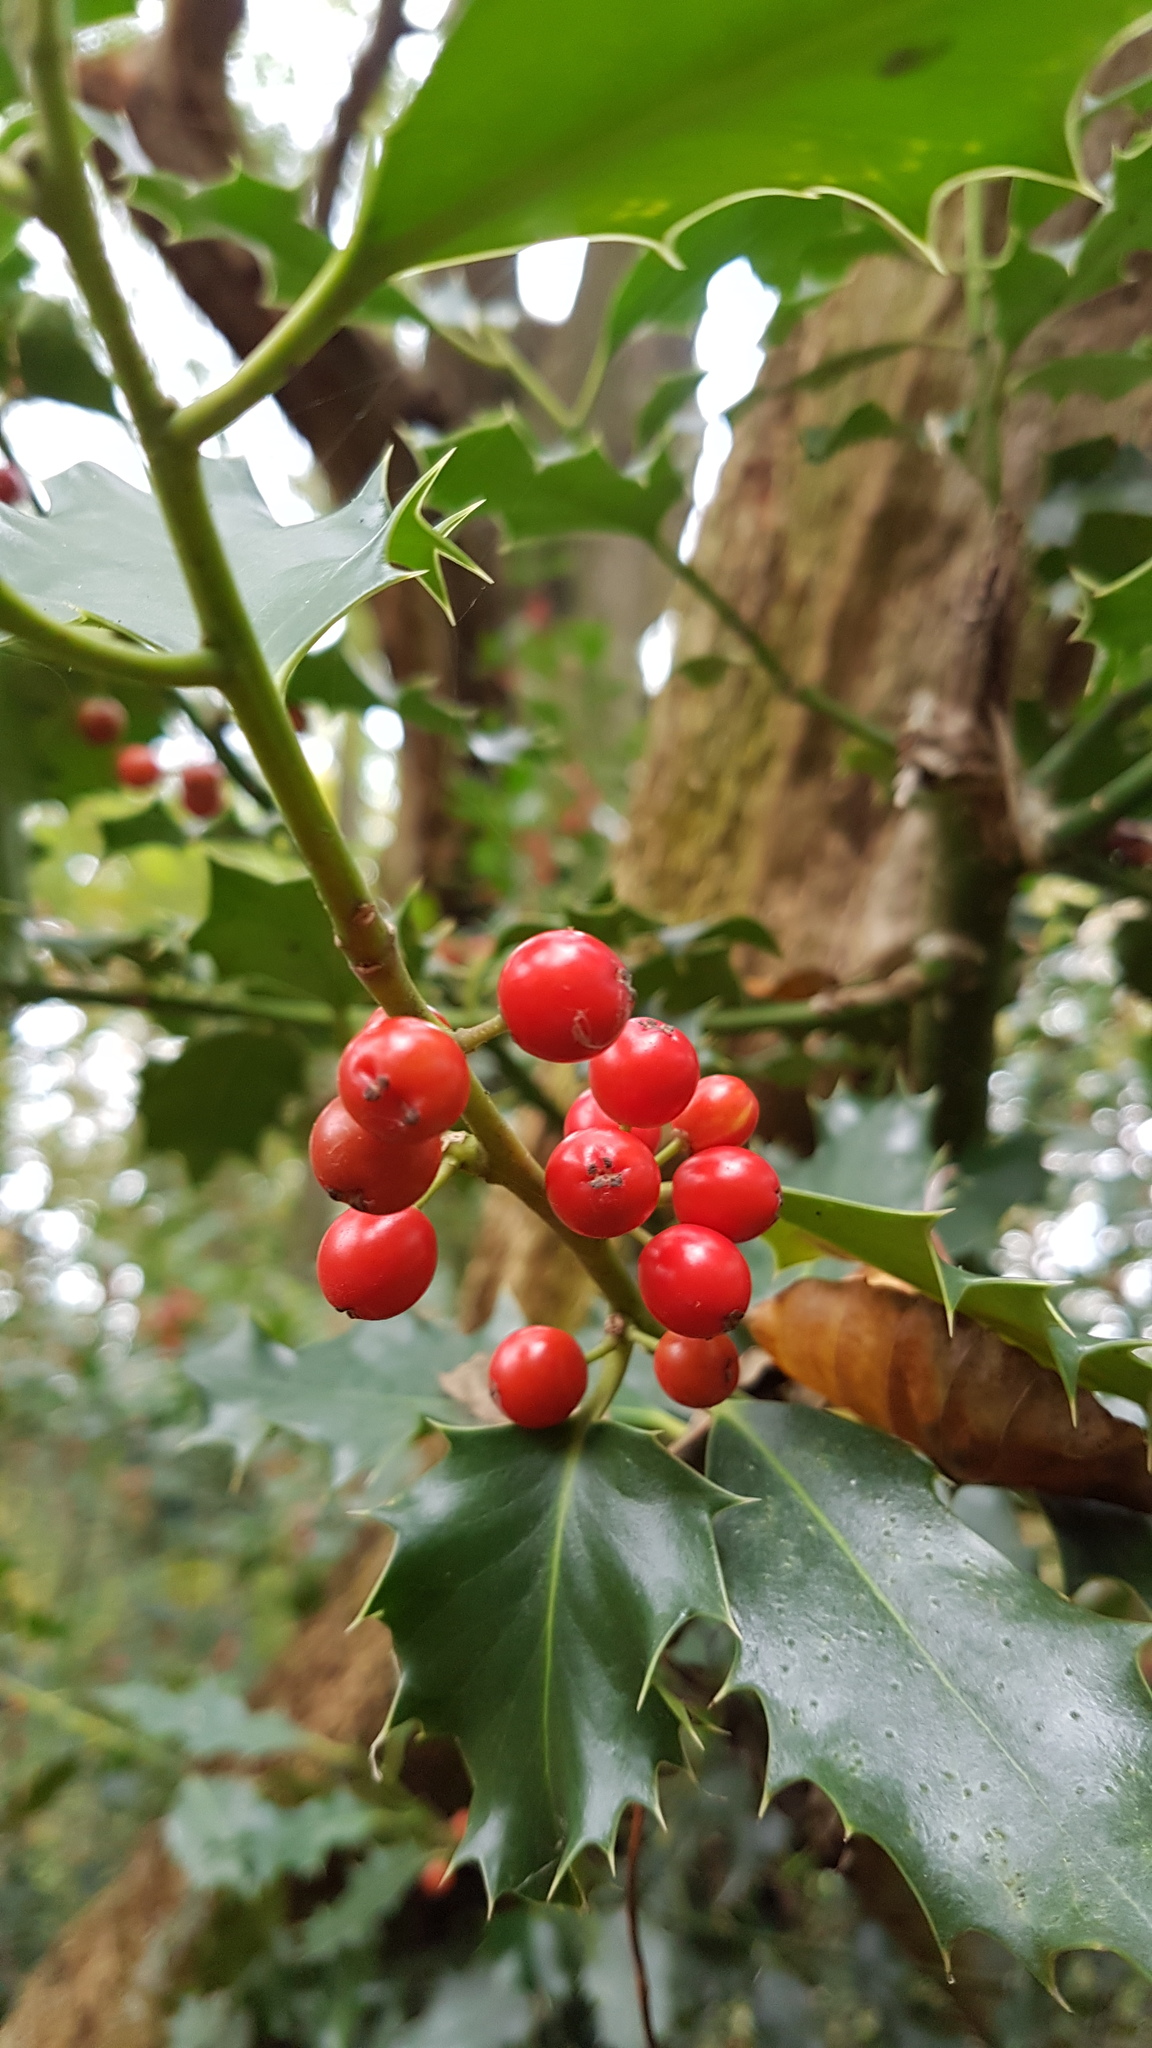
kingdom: Plantae
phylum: Tracheophyta
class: Magnoliopsida
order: Aquifoliales
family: Aquifoliaceae
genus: Ilex
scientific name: Ilex aquifolium
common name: English holly
